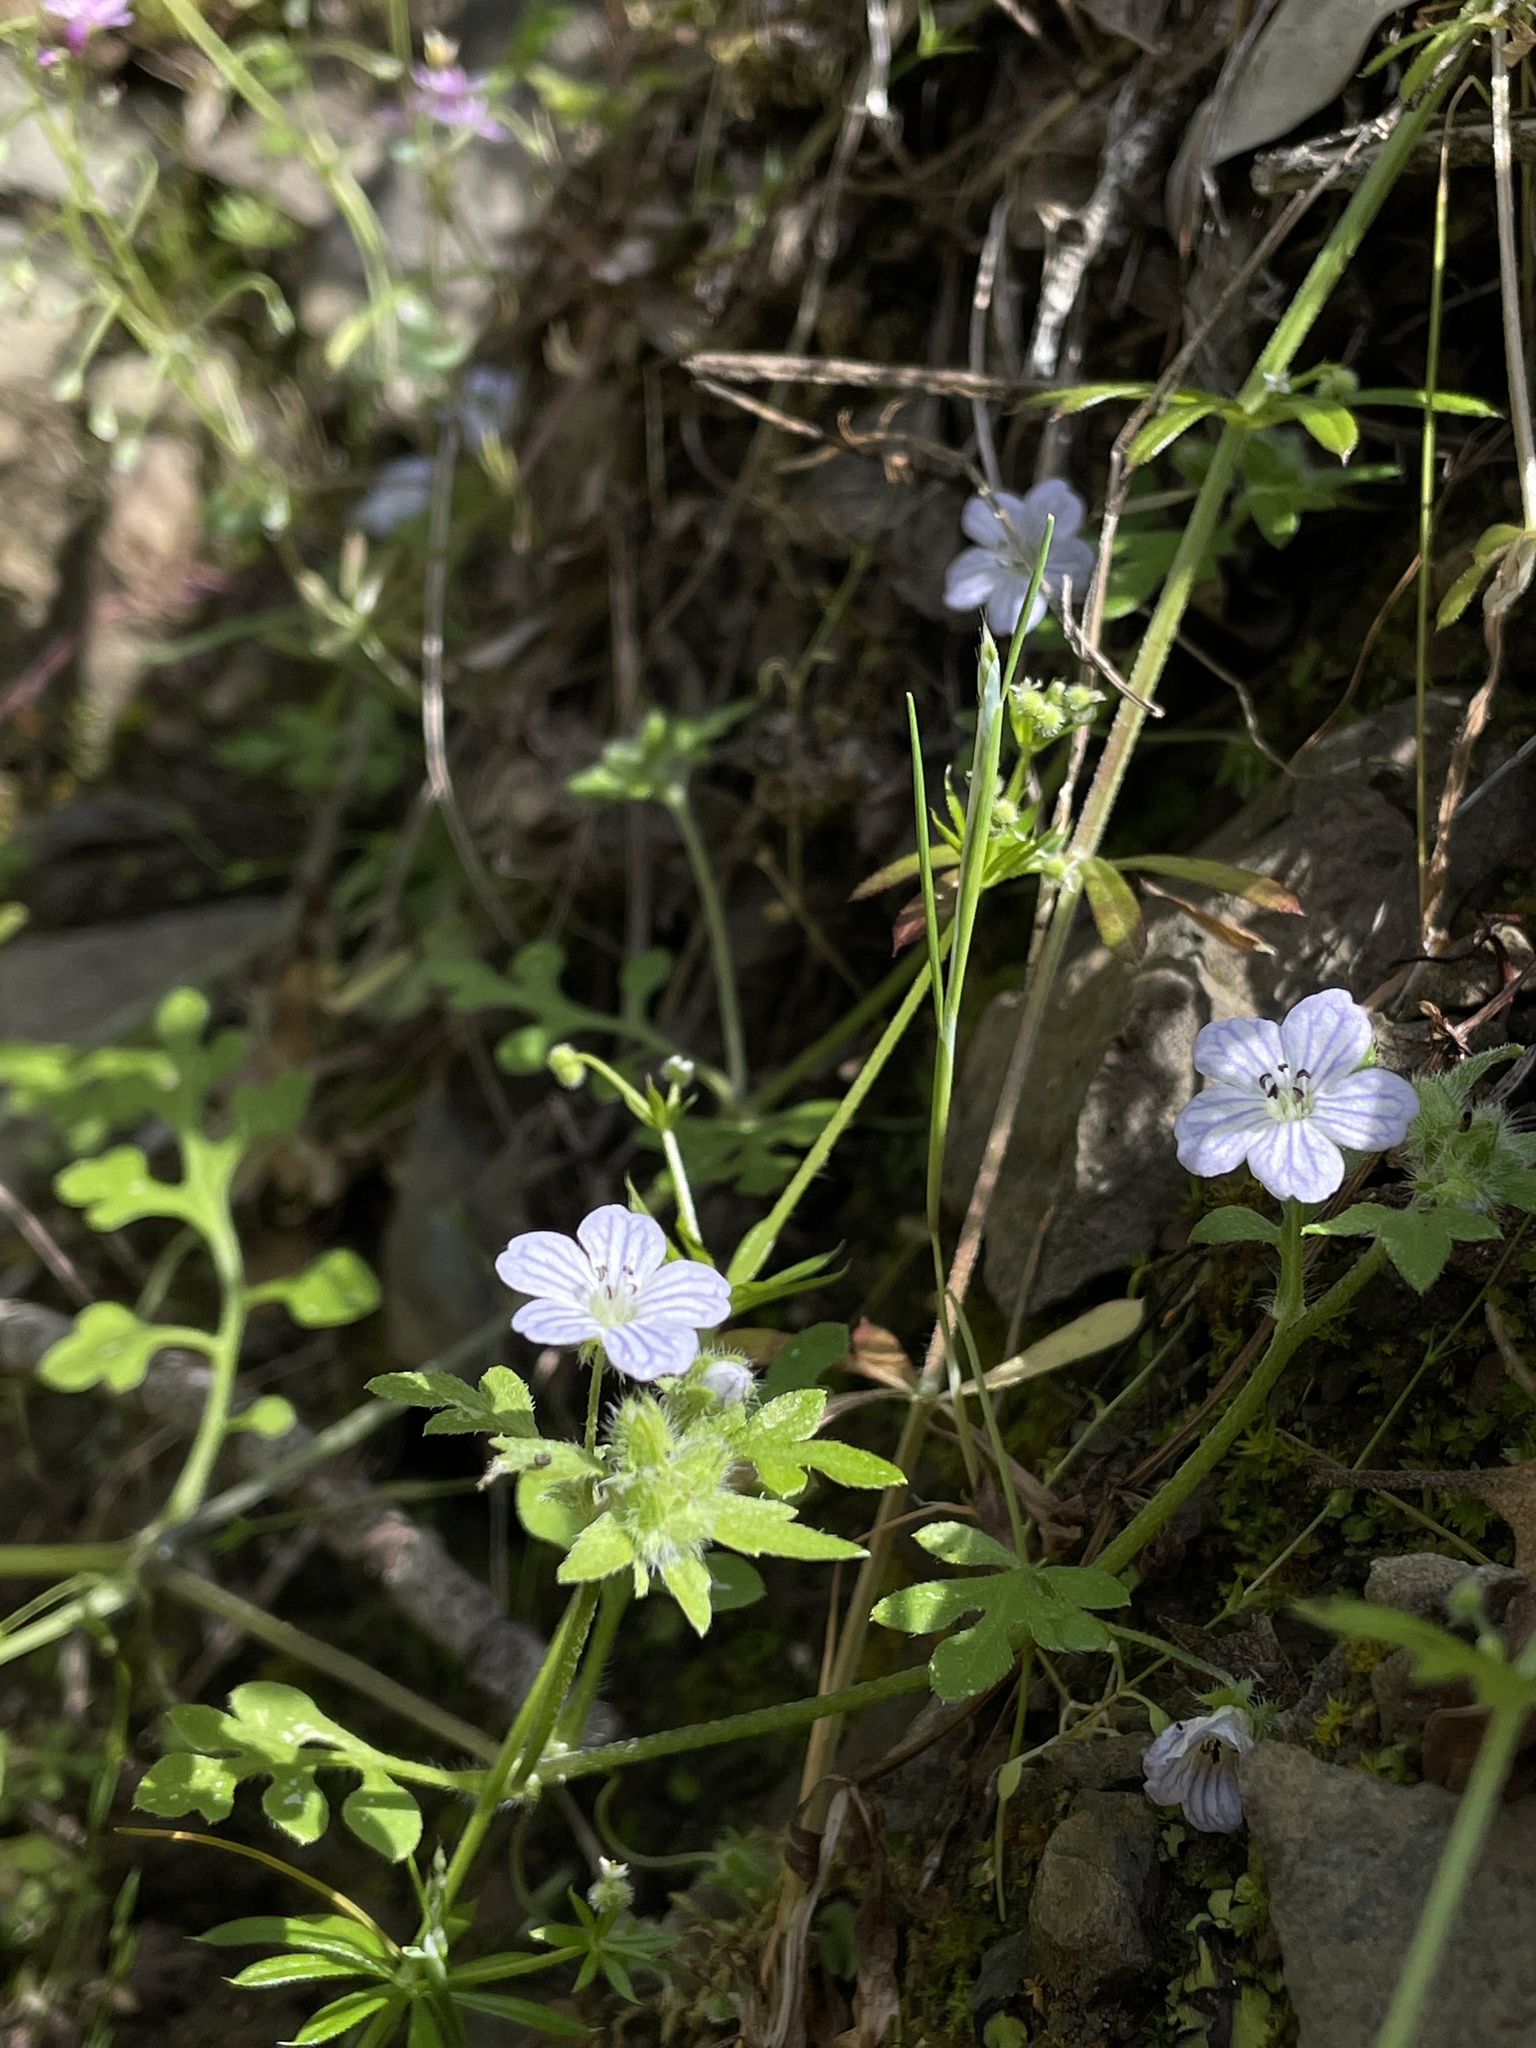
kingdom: Plantae
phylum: Tracheophyta
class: Magnoliopsida
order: Boraginales
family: Hydrophyllaceae
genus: Nemophila
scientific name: Nemophila heterophylla
